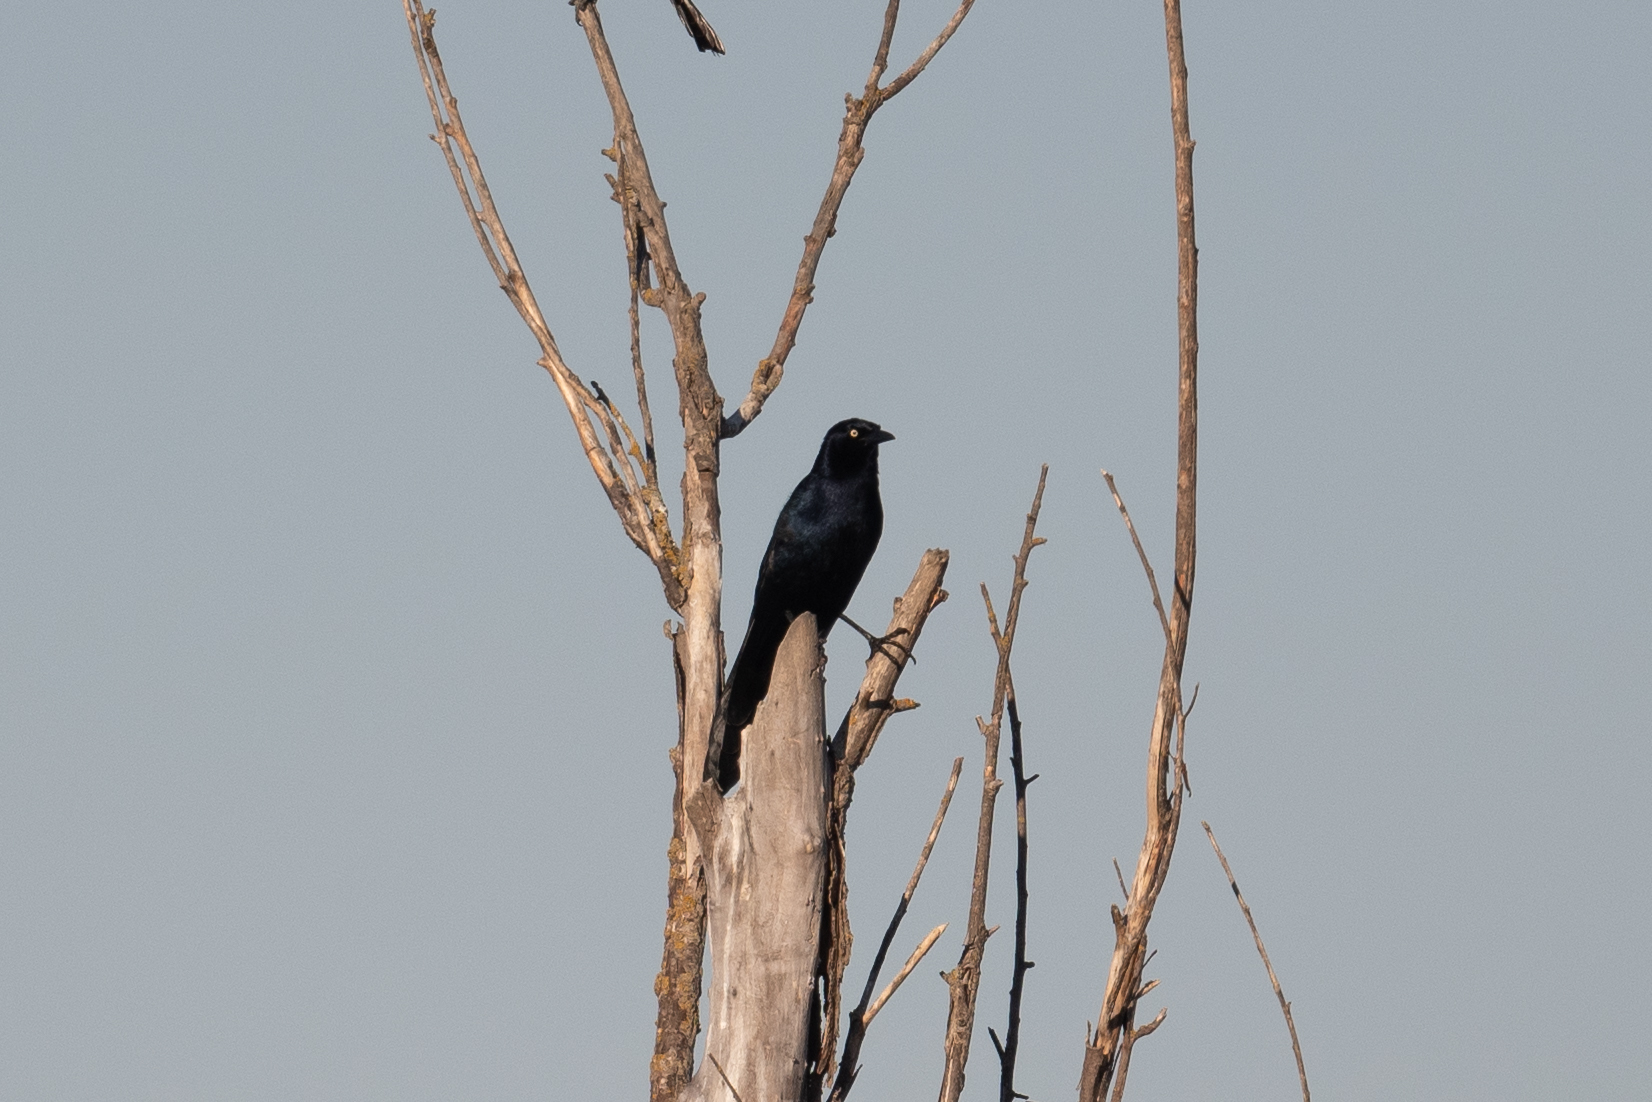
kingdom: Animalia
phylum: Chordata
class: Aves
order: Passeriformes
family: Icteridae
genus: Quiscalus
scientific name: Quiscalus mexicanus
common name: Great-tailed grackle
